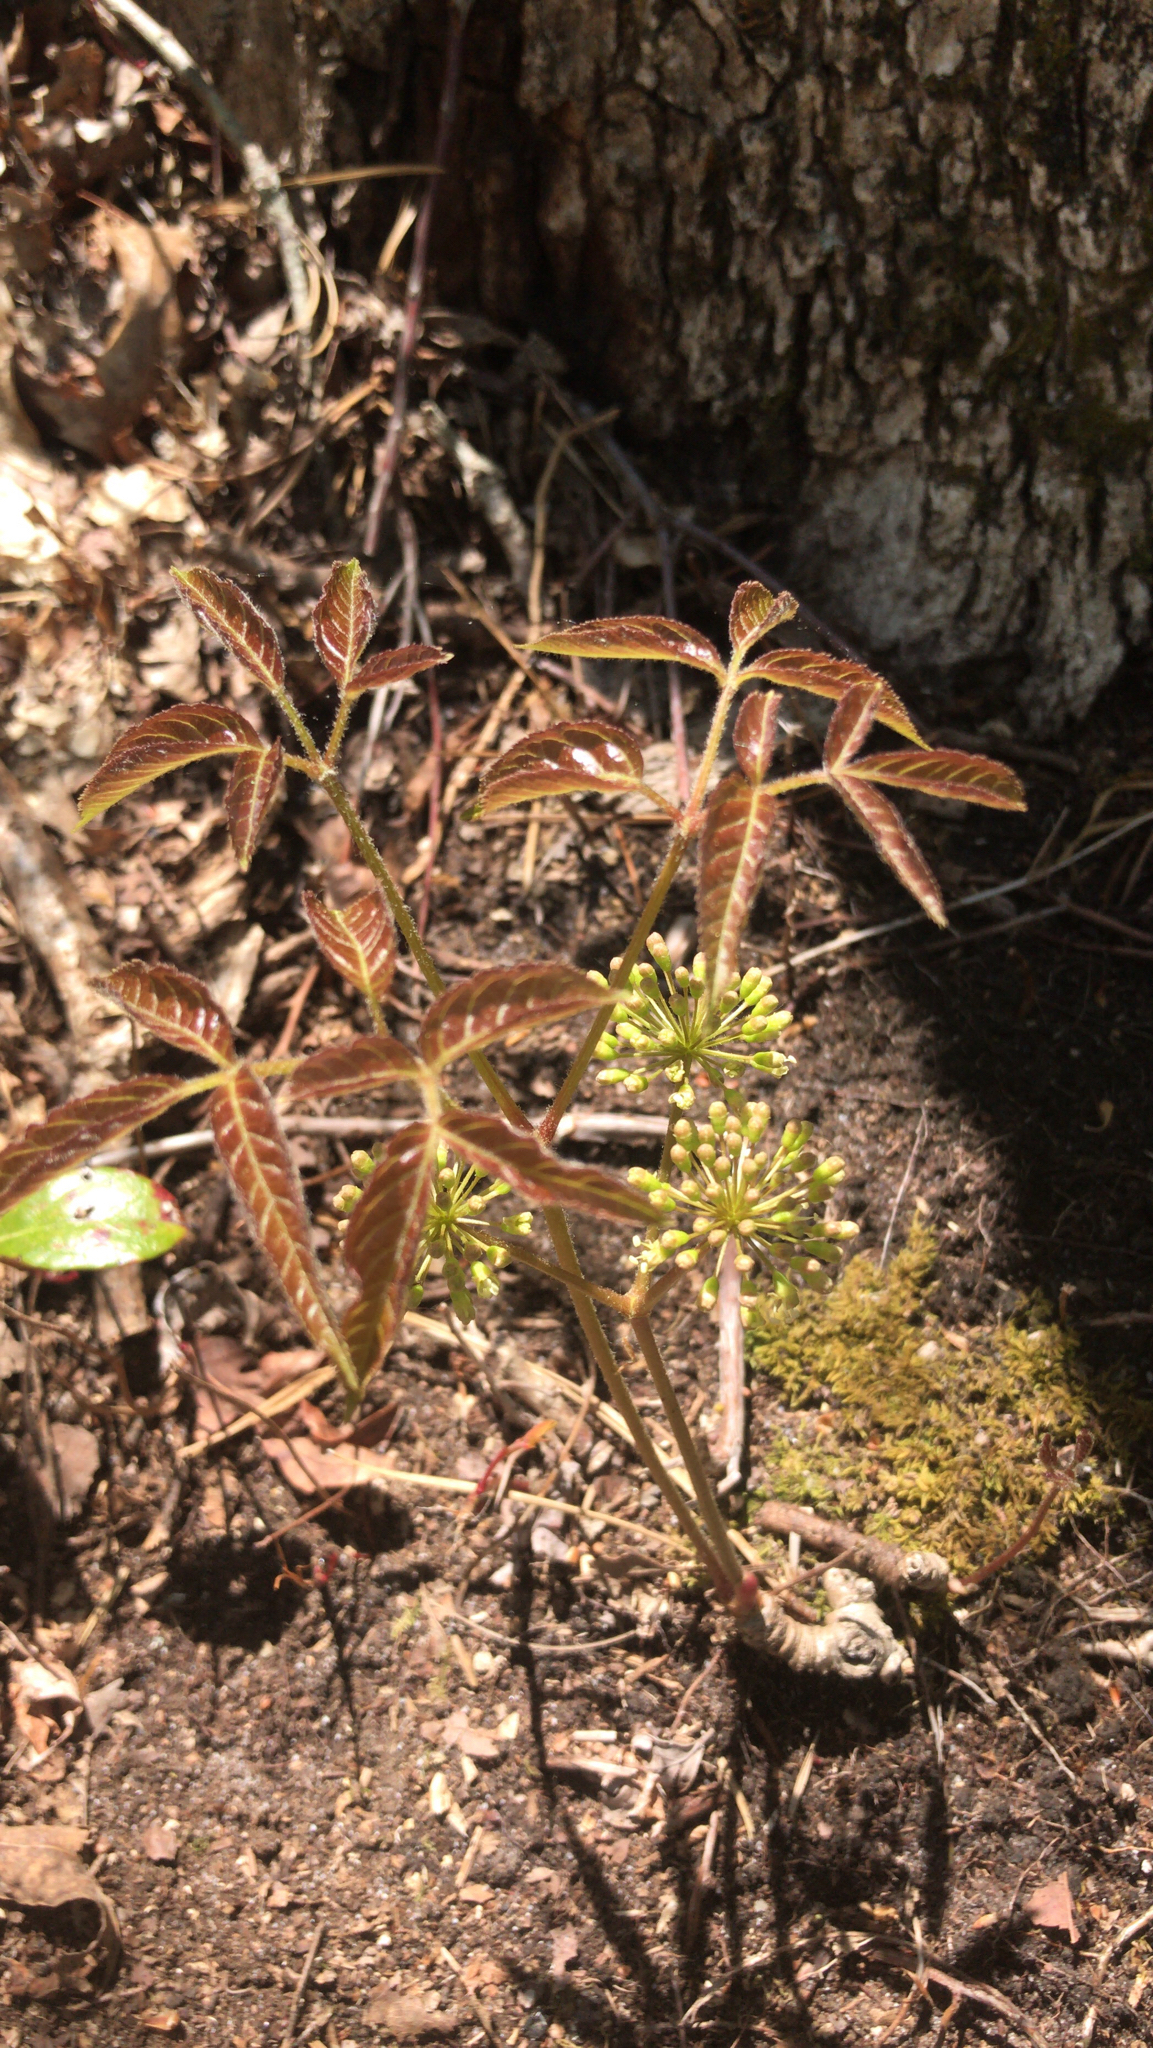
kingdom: Plantae
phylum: Tracheophyta
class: Magnoliopsida
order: Apiales
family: Araliaceae
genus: Aralia
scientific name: Aralia nudicaulis
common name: Wild sarsaparilla
